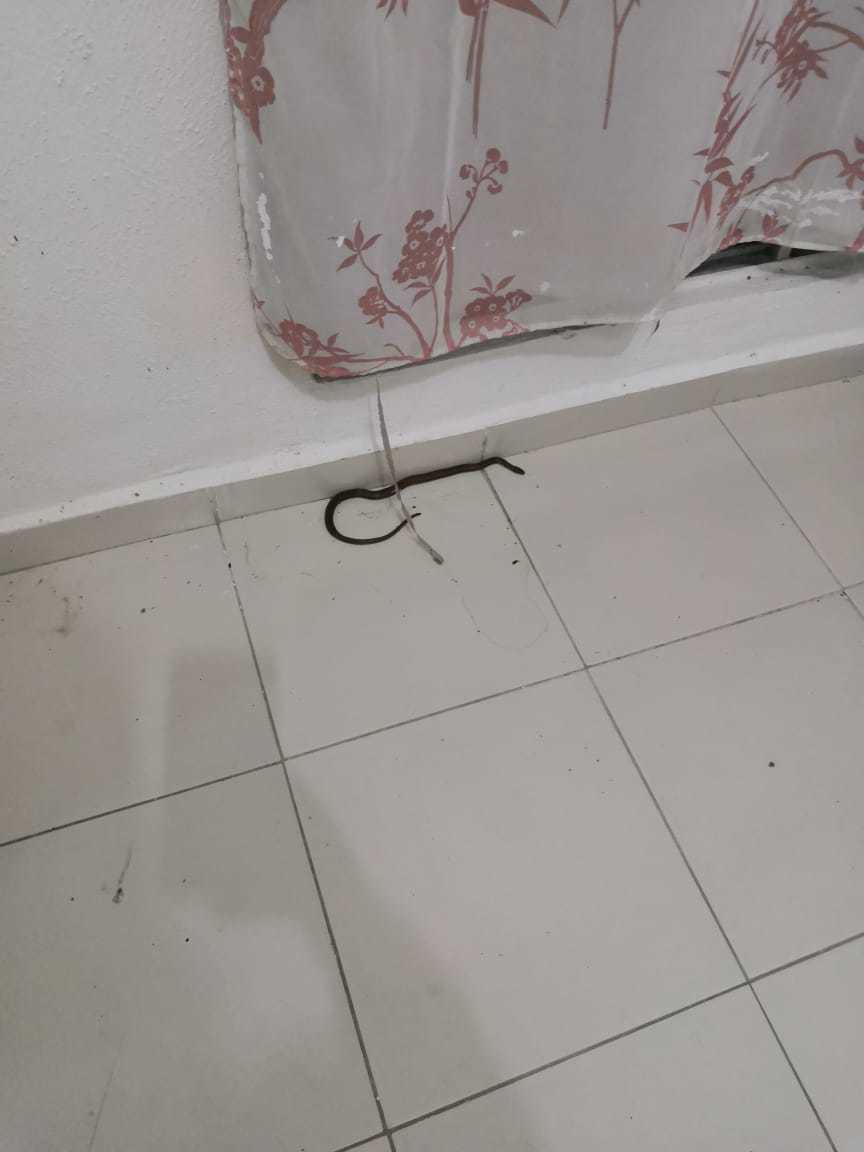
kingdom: Animalia
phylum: Chordata
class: Squamata
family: Colubridae
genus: Coniophanes
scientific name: Coniophanes imperialis
